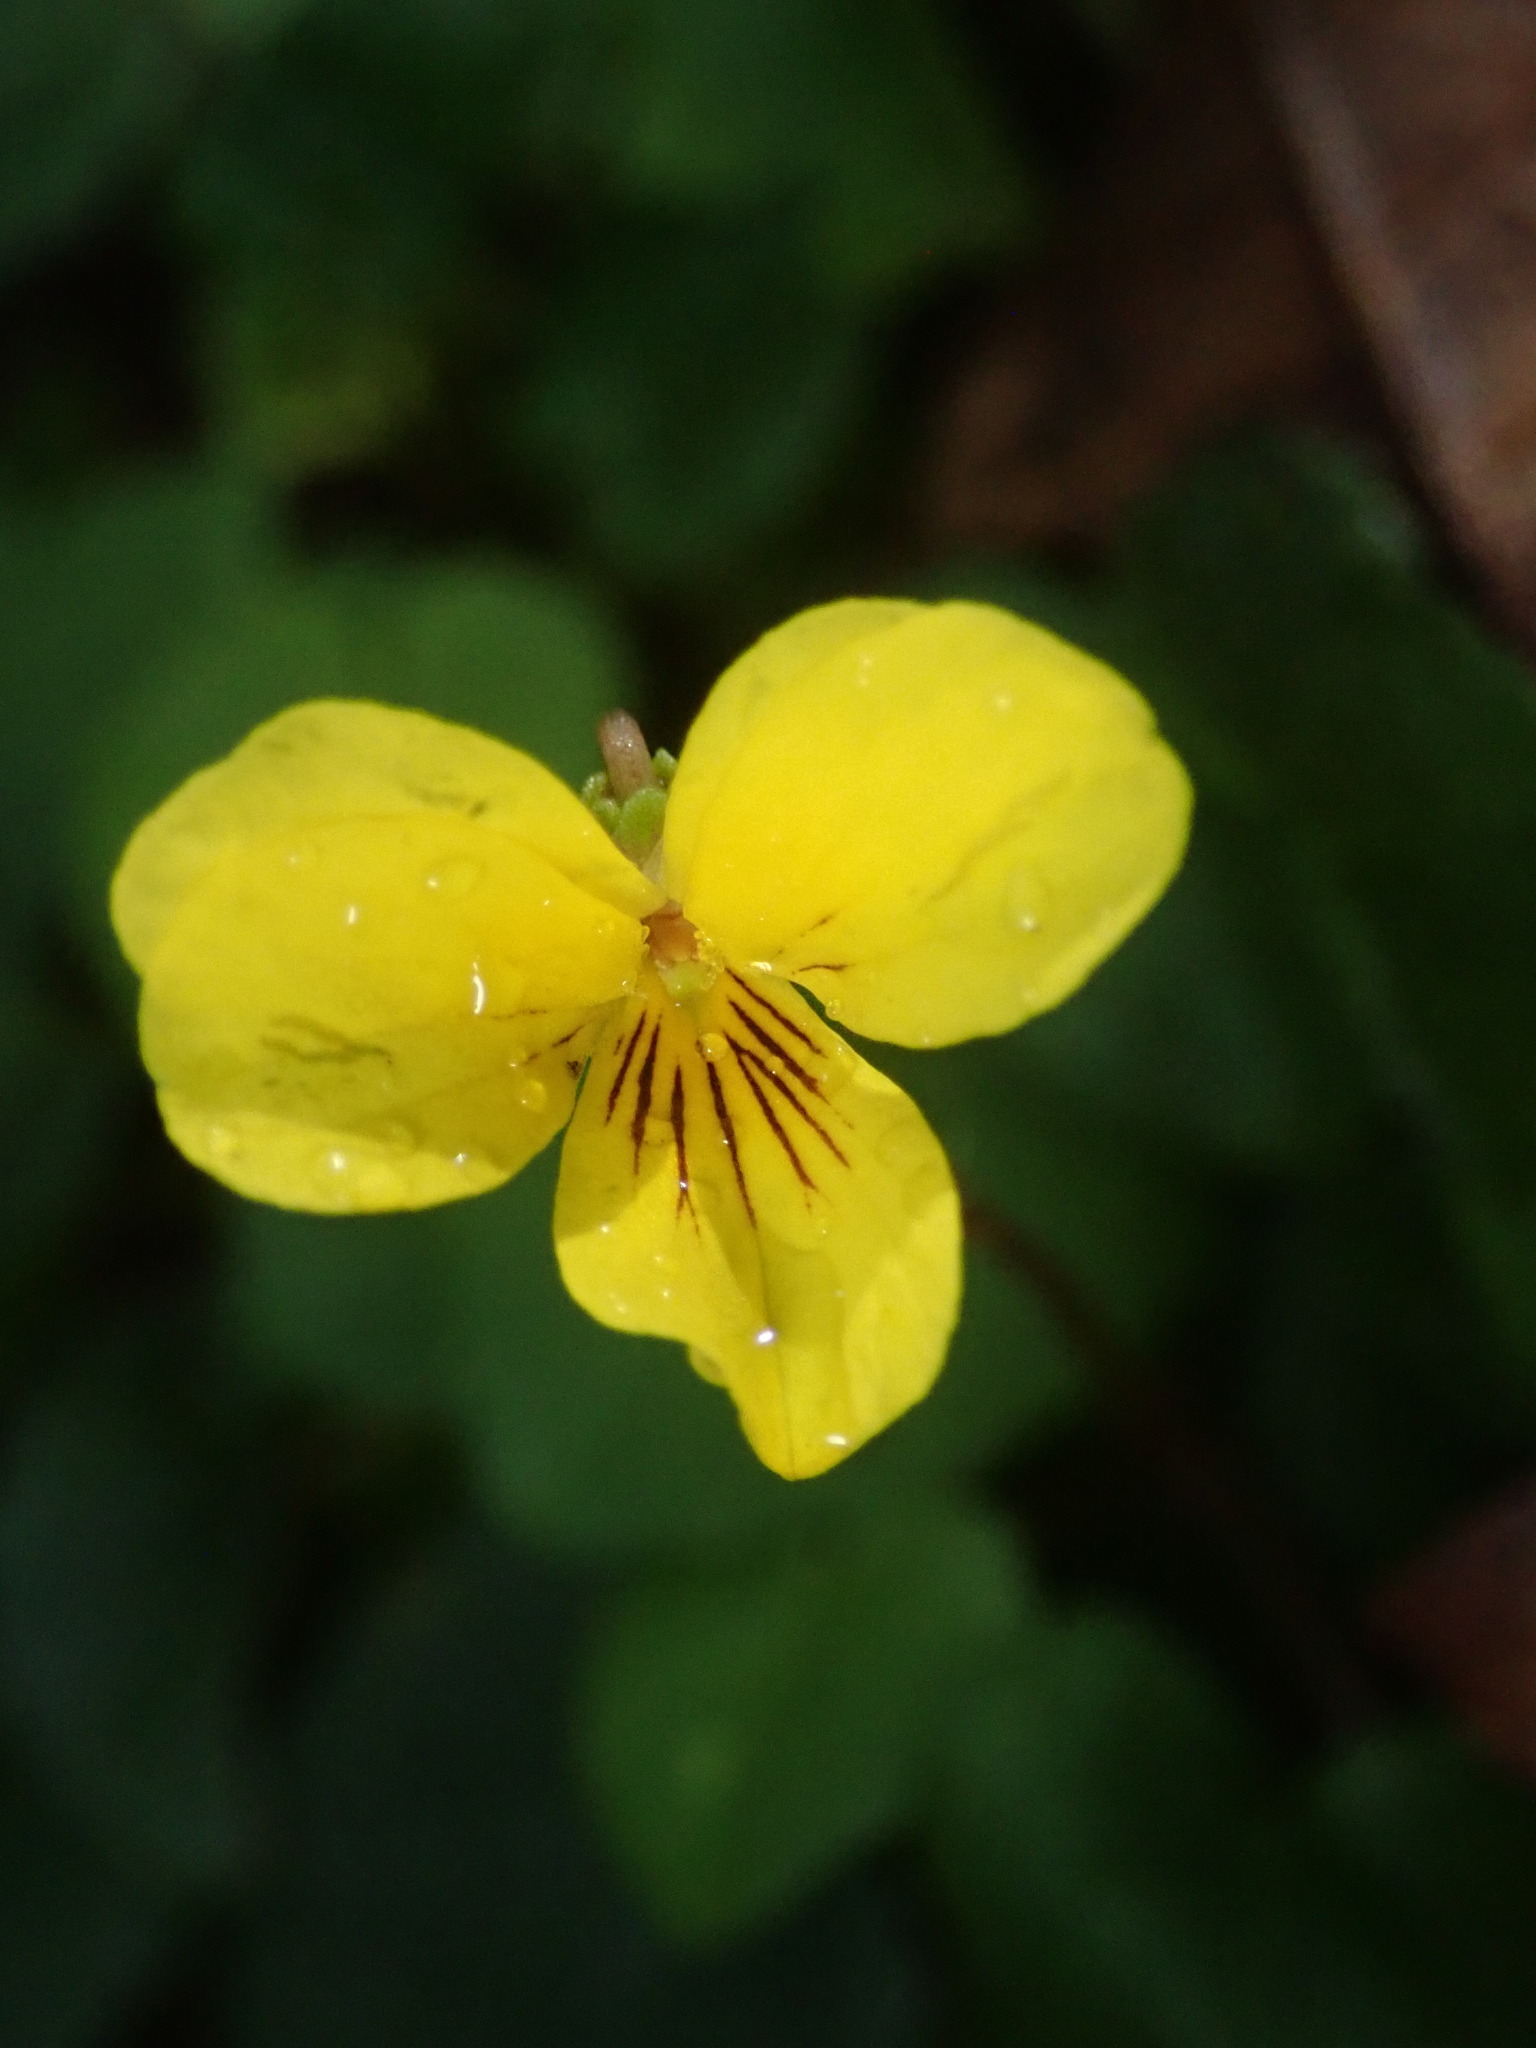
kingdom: Plantae
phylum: Tracheophyta
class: Magnoliopsida
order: Malpighiales
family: Violaceae
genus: Viola
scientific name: Viola sempervirens
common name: Evergreen violet
